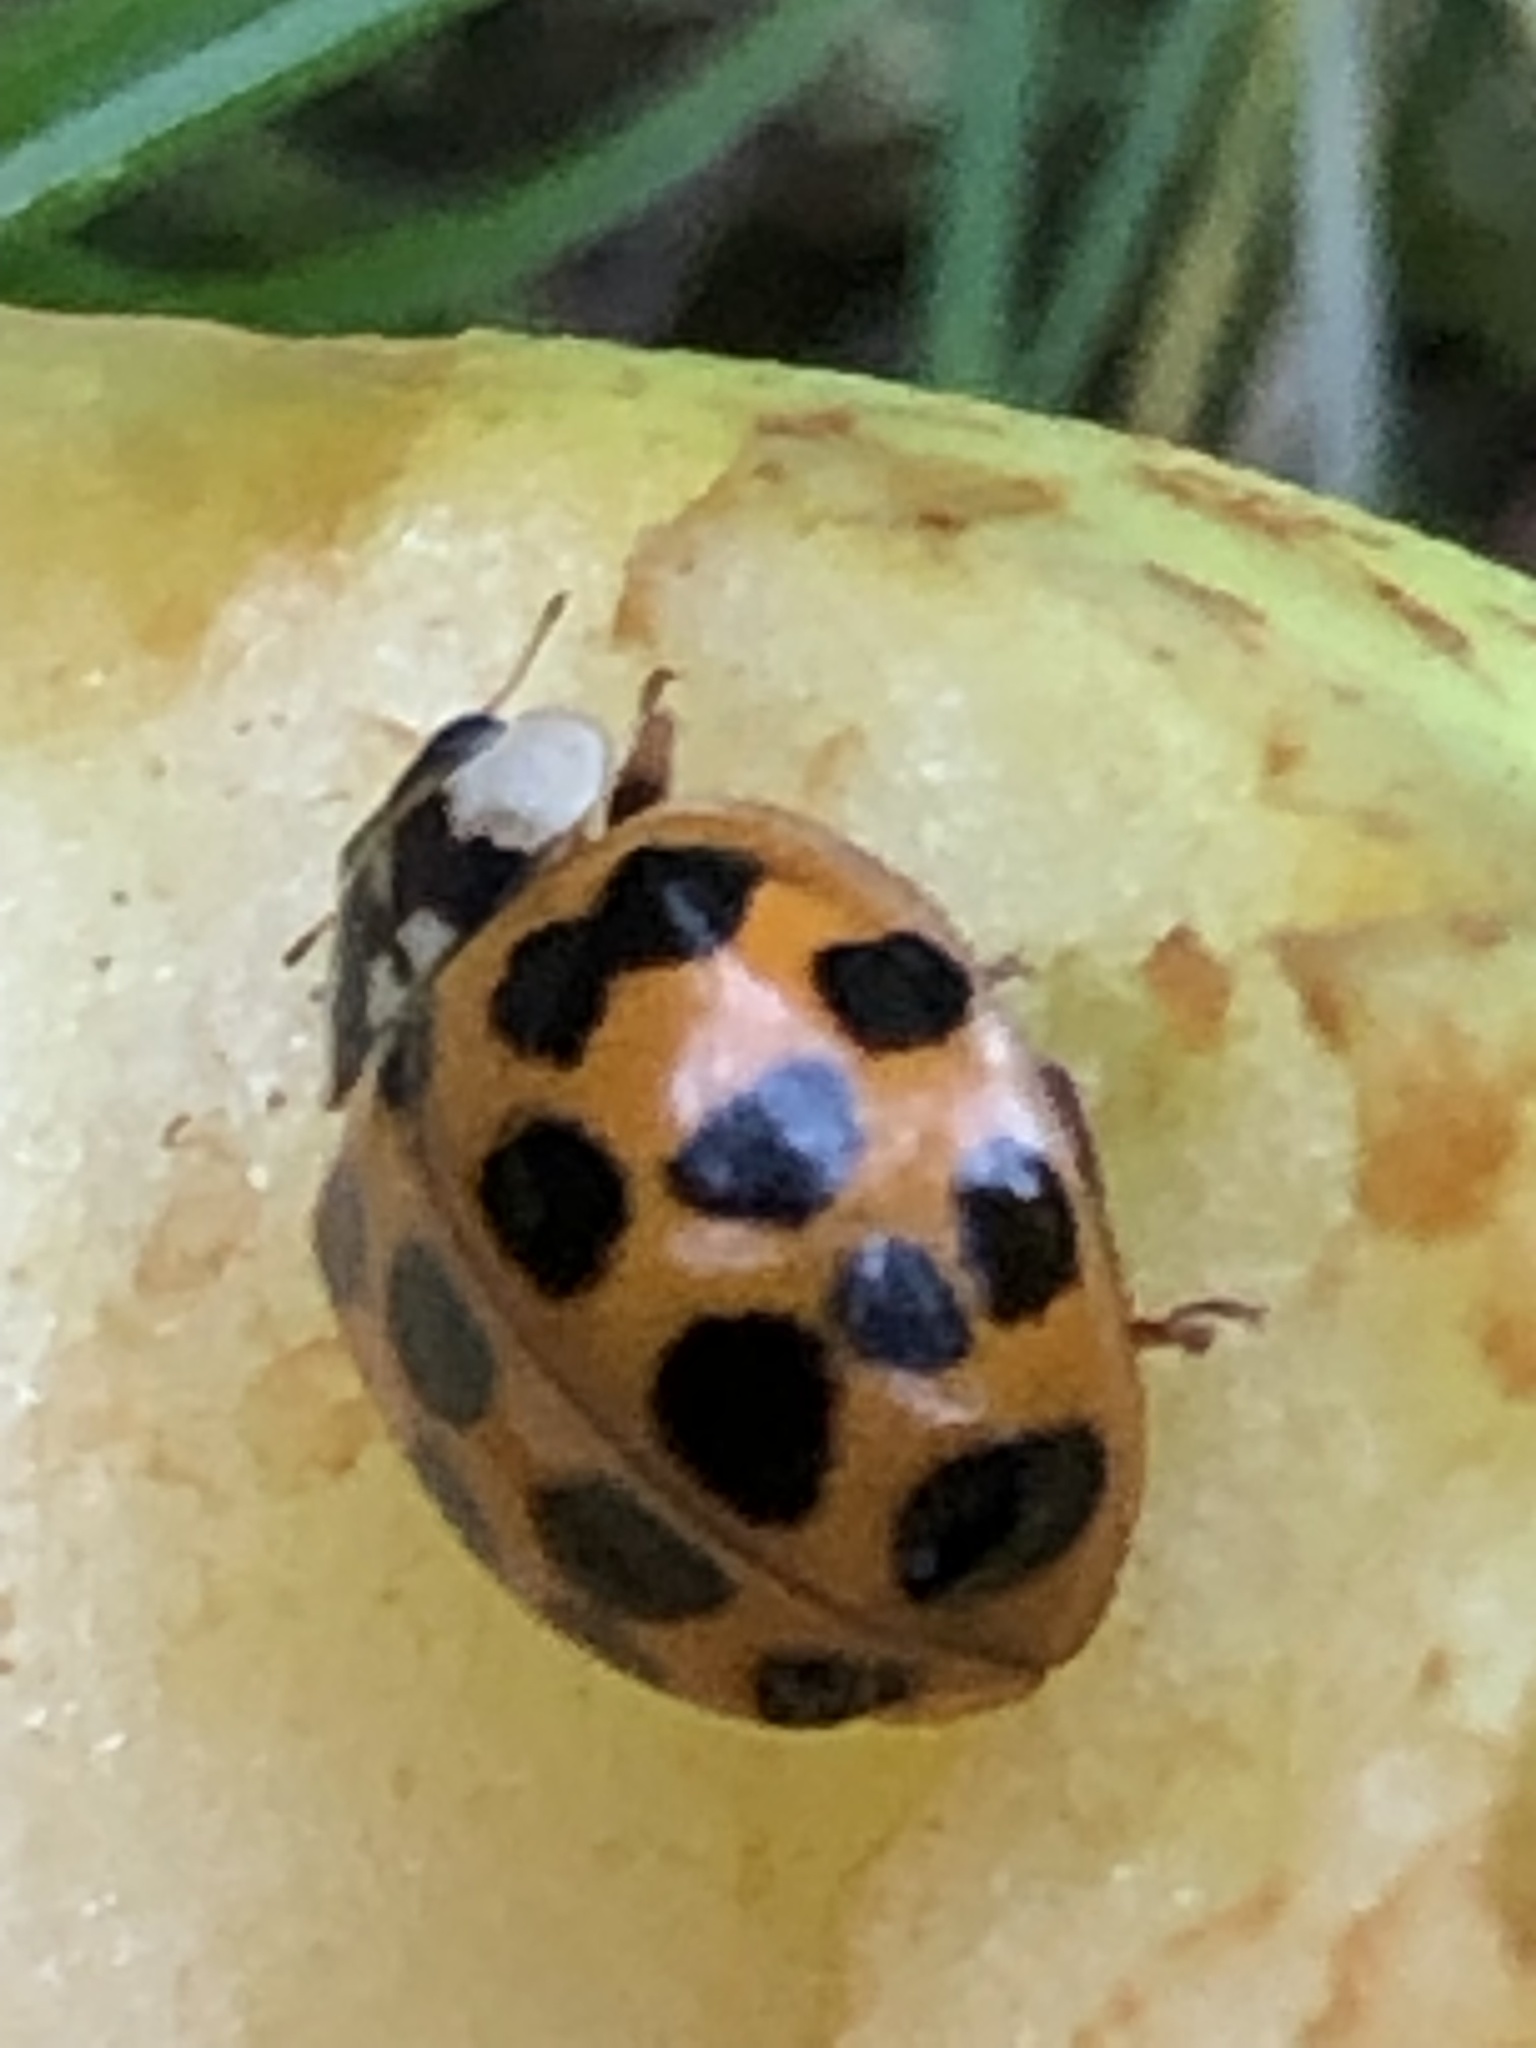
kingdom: Animalia
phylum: Arthropoda
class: Insecta
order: Coleoptera
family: Coccinellidae
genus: Harmonia
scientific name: Harmonia axyridis
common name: Harlequin ladybird
